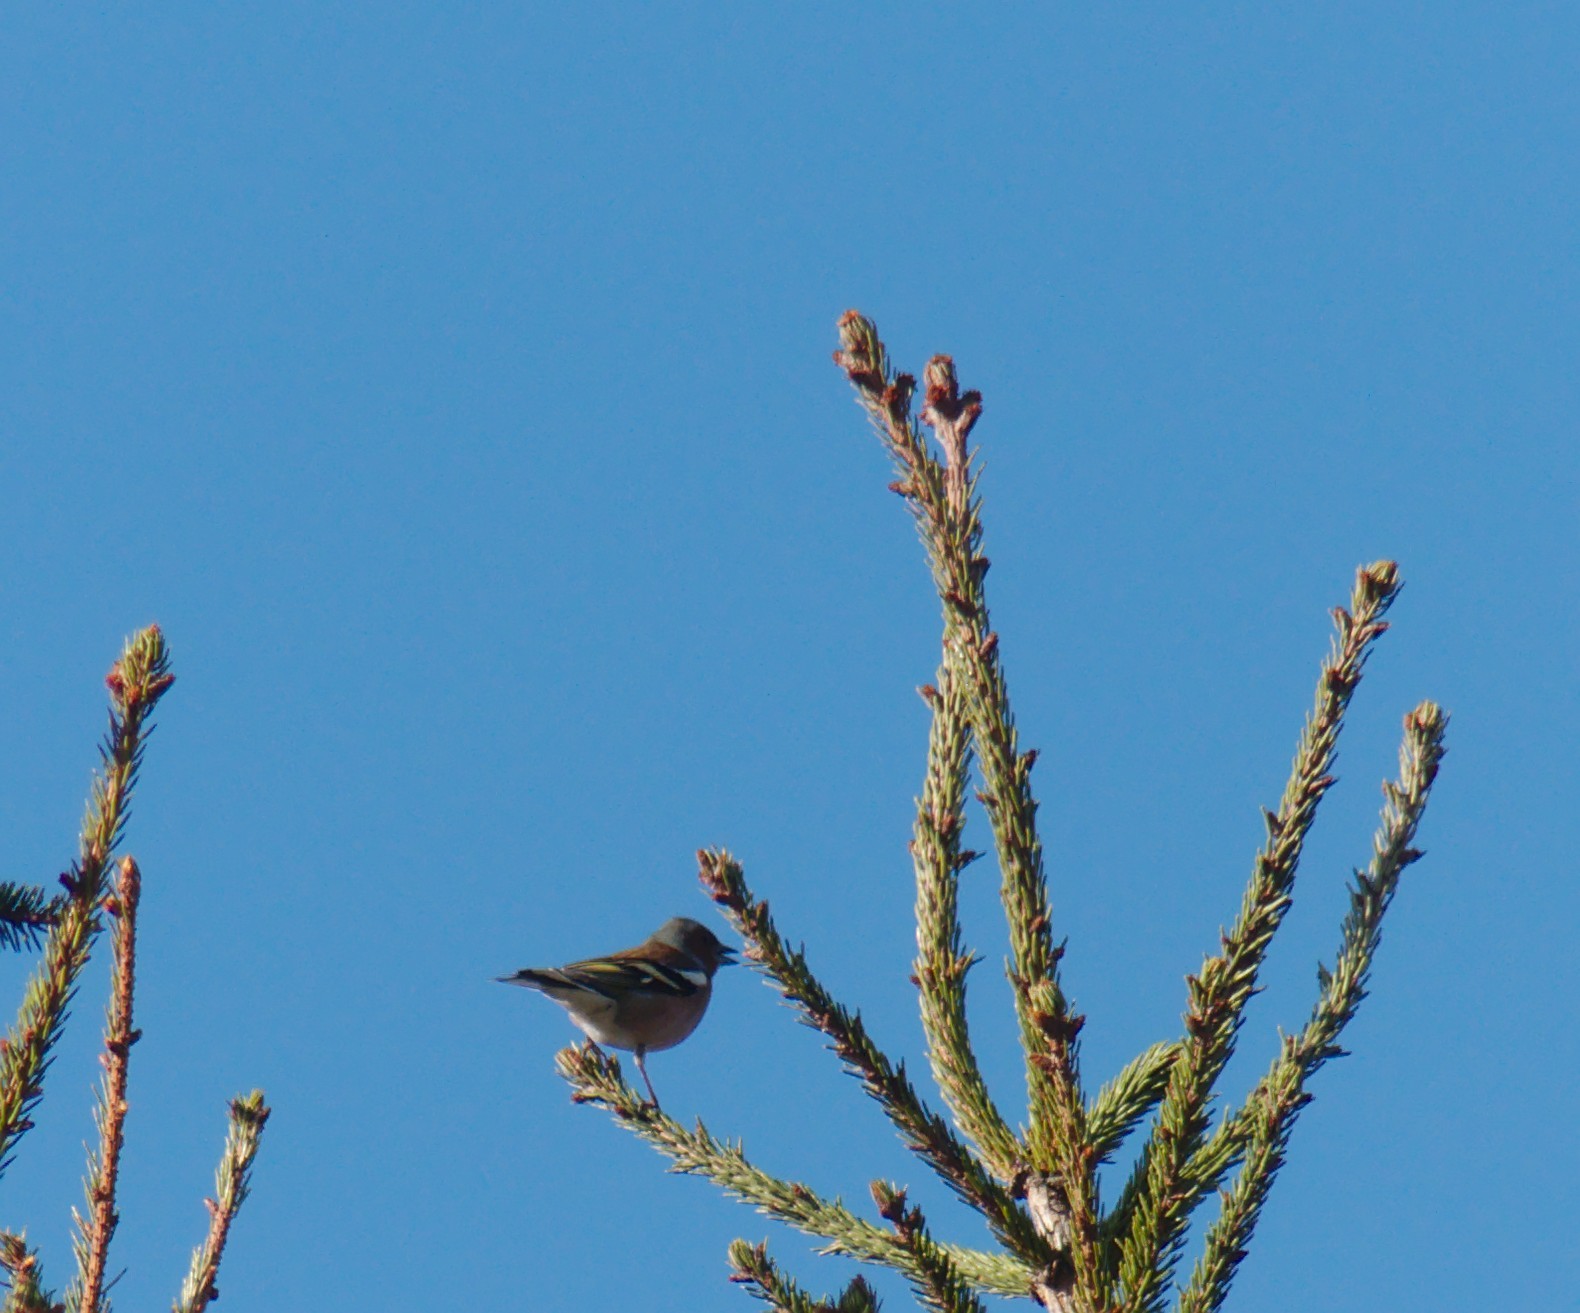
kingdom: Animalia
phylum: Chordata
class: Aves
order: Passeriformes
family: Fringillidae
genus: Fringilla
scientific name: Fringilla coelebs
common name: Common chaffinch
